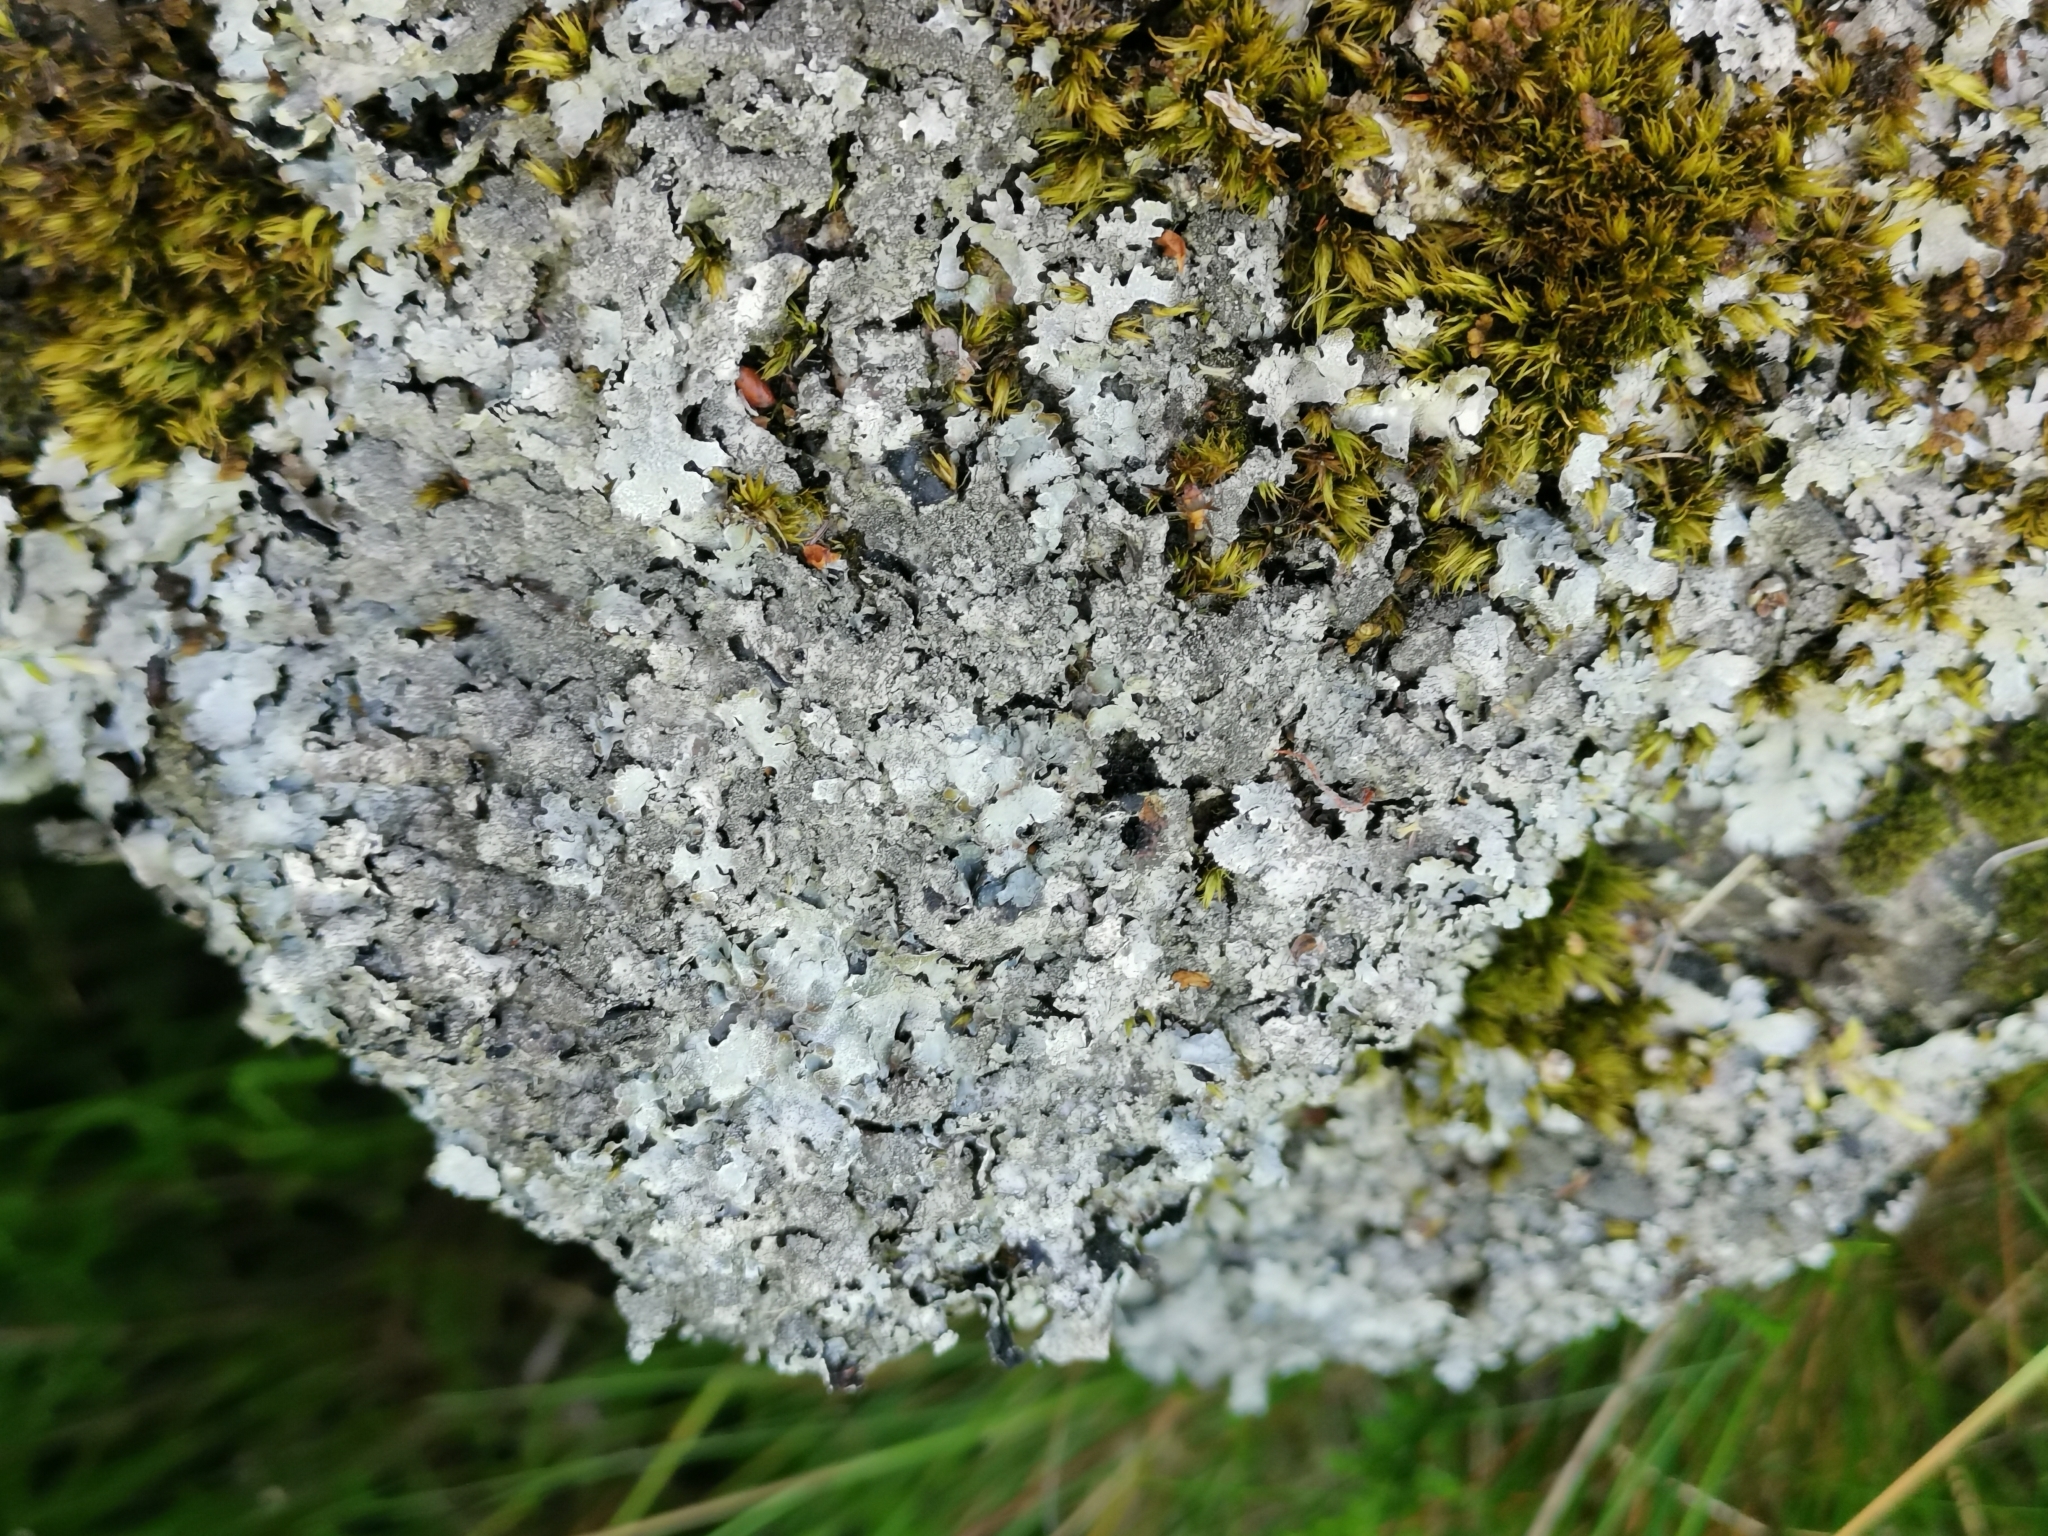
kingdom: Fungi
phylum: Ascomycota
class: Lecanoromycetes
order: Lecanorales
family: Parmeliaceae
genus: Parmelia
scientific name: Parmelia saxatilis
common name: Salted shield lichen
